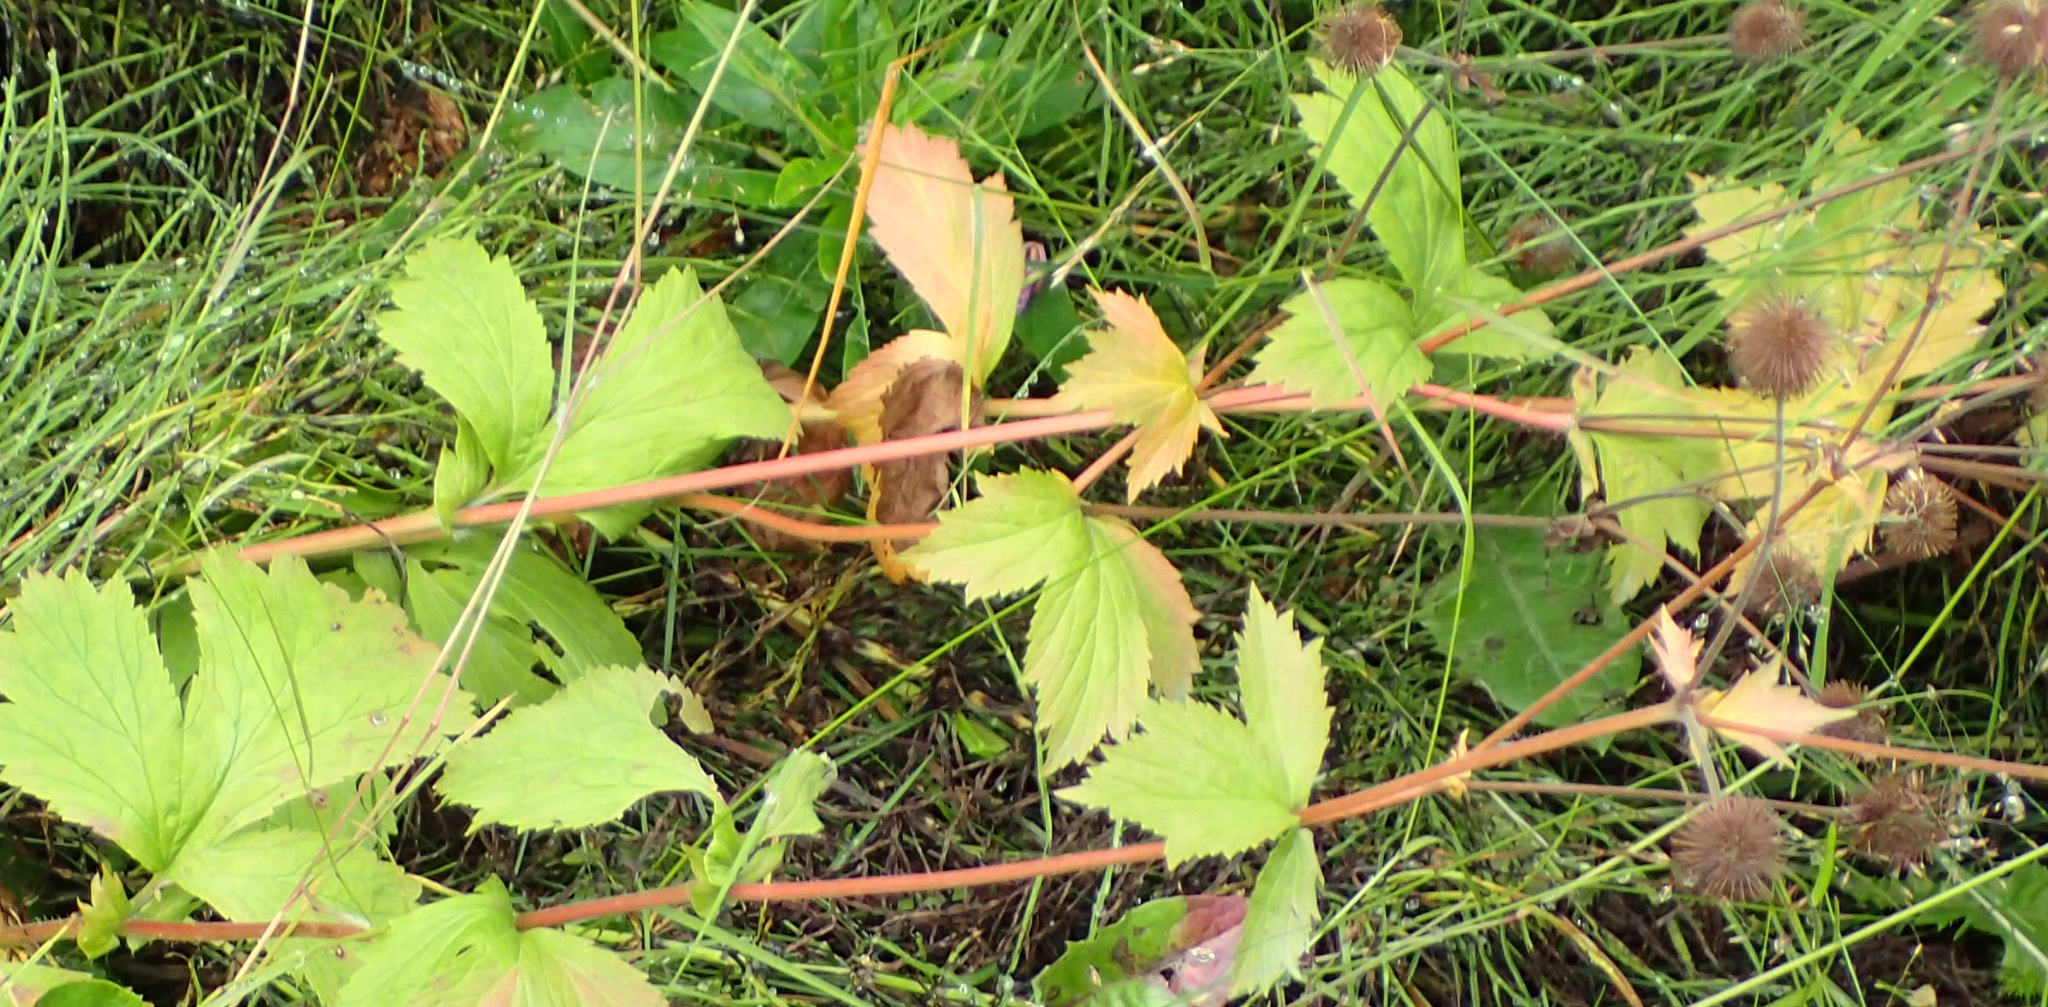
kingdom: Plantae
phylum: Tracheophyta
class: Magnoliopsida
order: Rosales
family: Rosaceae
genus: Geum
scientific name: Geum macrophyllum
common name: Large-leaved avens
